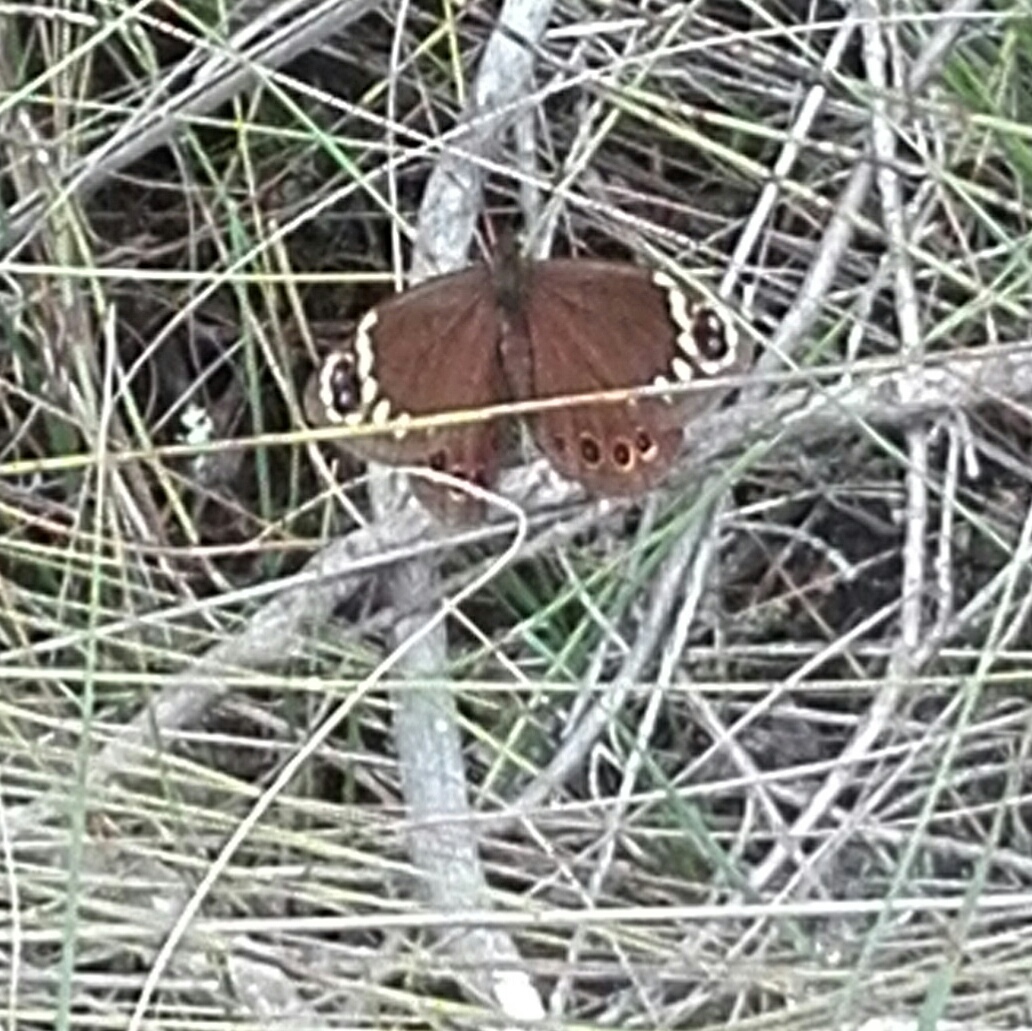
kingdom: Animalia
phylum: Arthropoda
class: Insecta
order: Lepidoptera
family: Nymphalidae
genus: Dira
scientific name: Dira clytus
